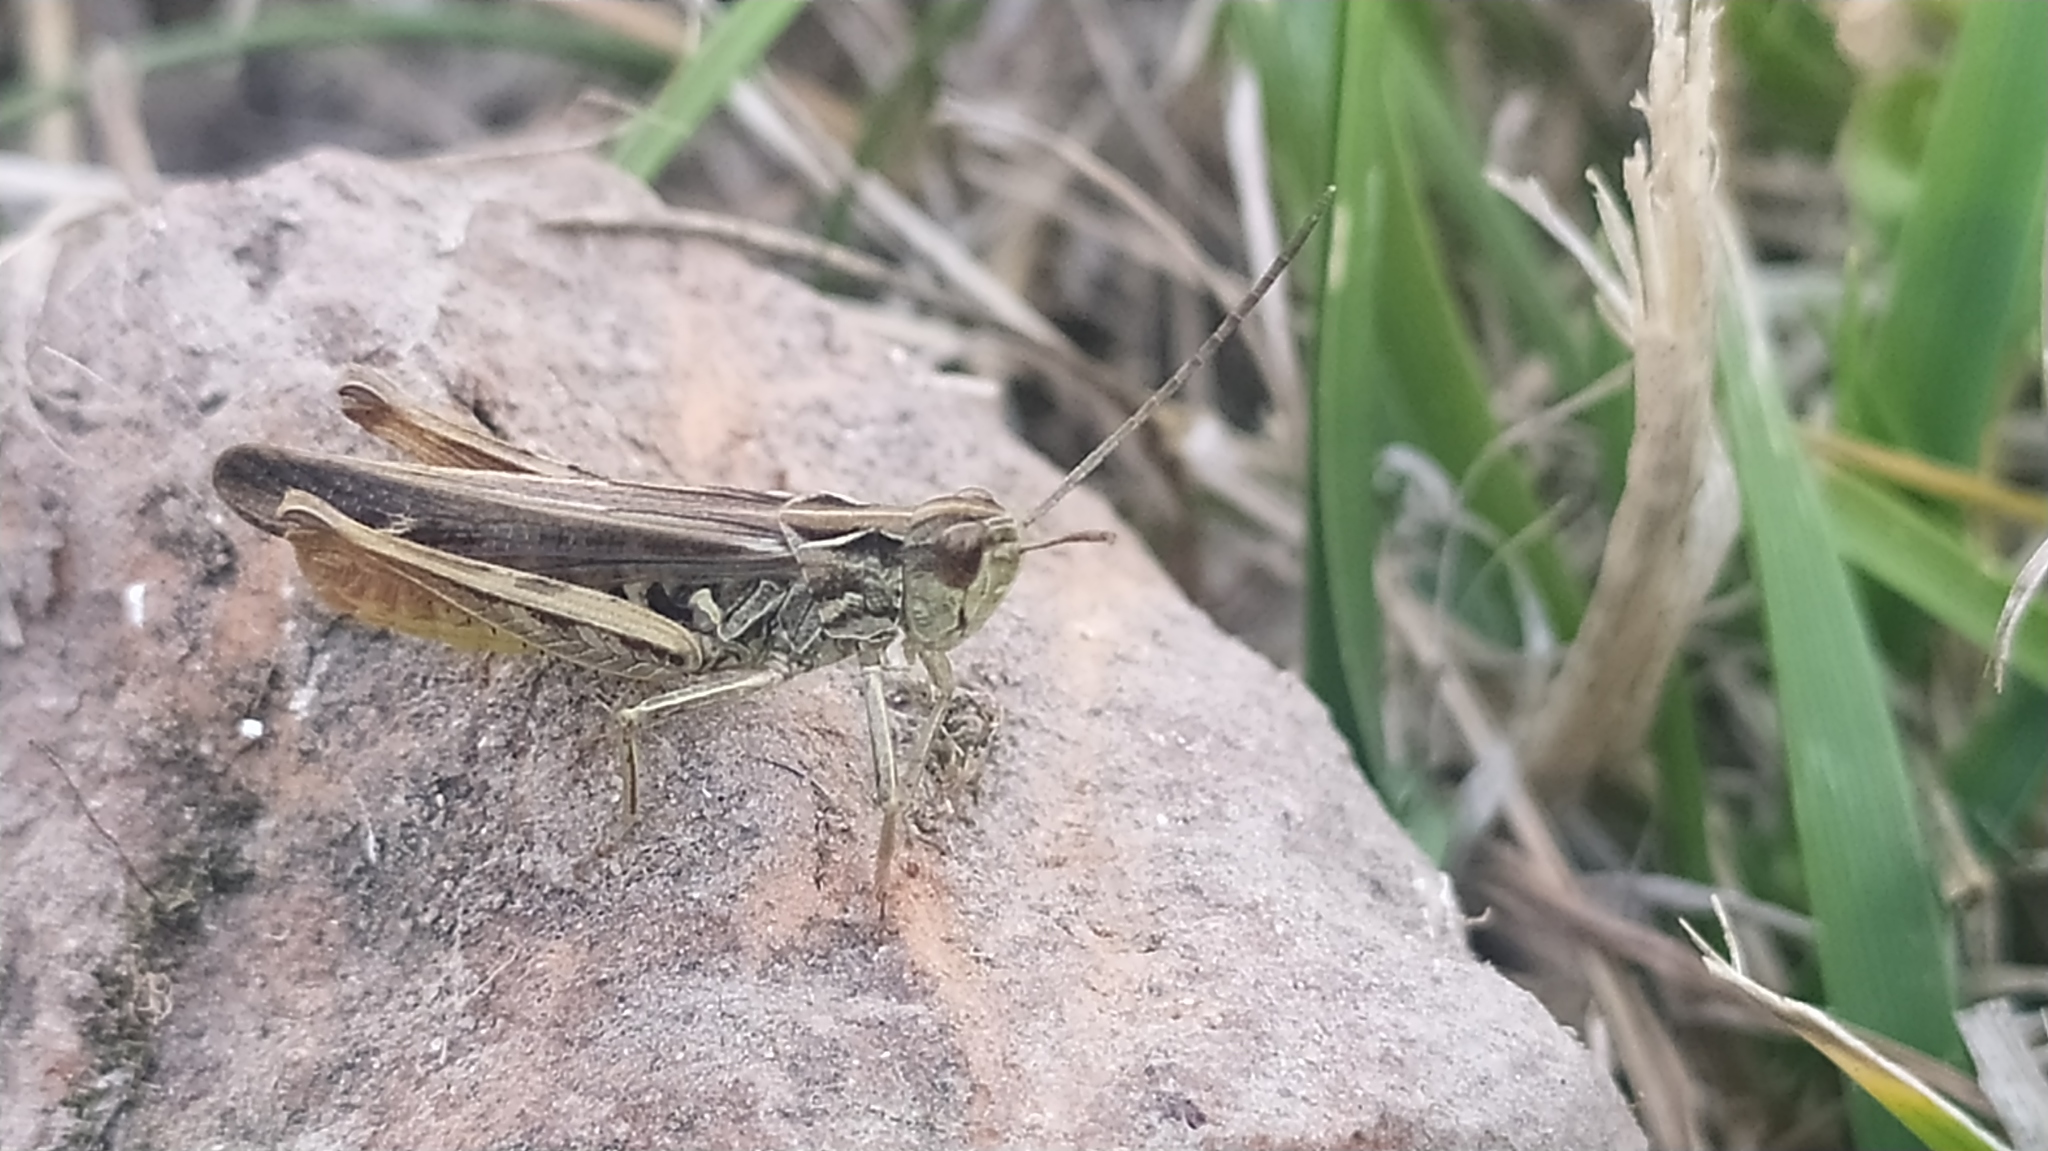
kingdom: Animalia
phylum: Arthropoda
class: Insecta
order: Orthoptera
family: Acrididae
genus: Chorthippus
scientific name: Chorthippus biguttulus
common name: Bow-winged grasshopper
